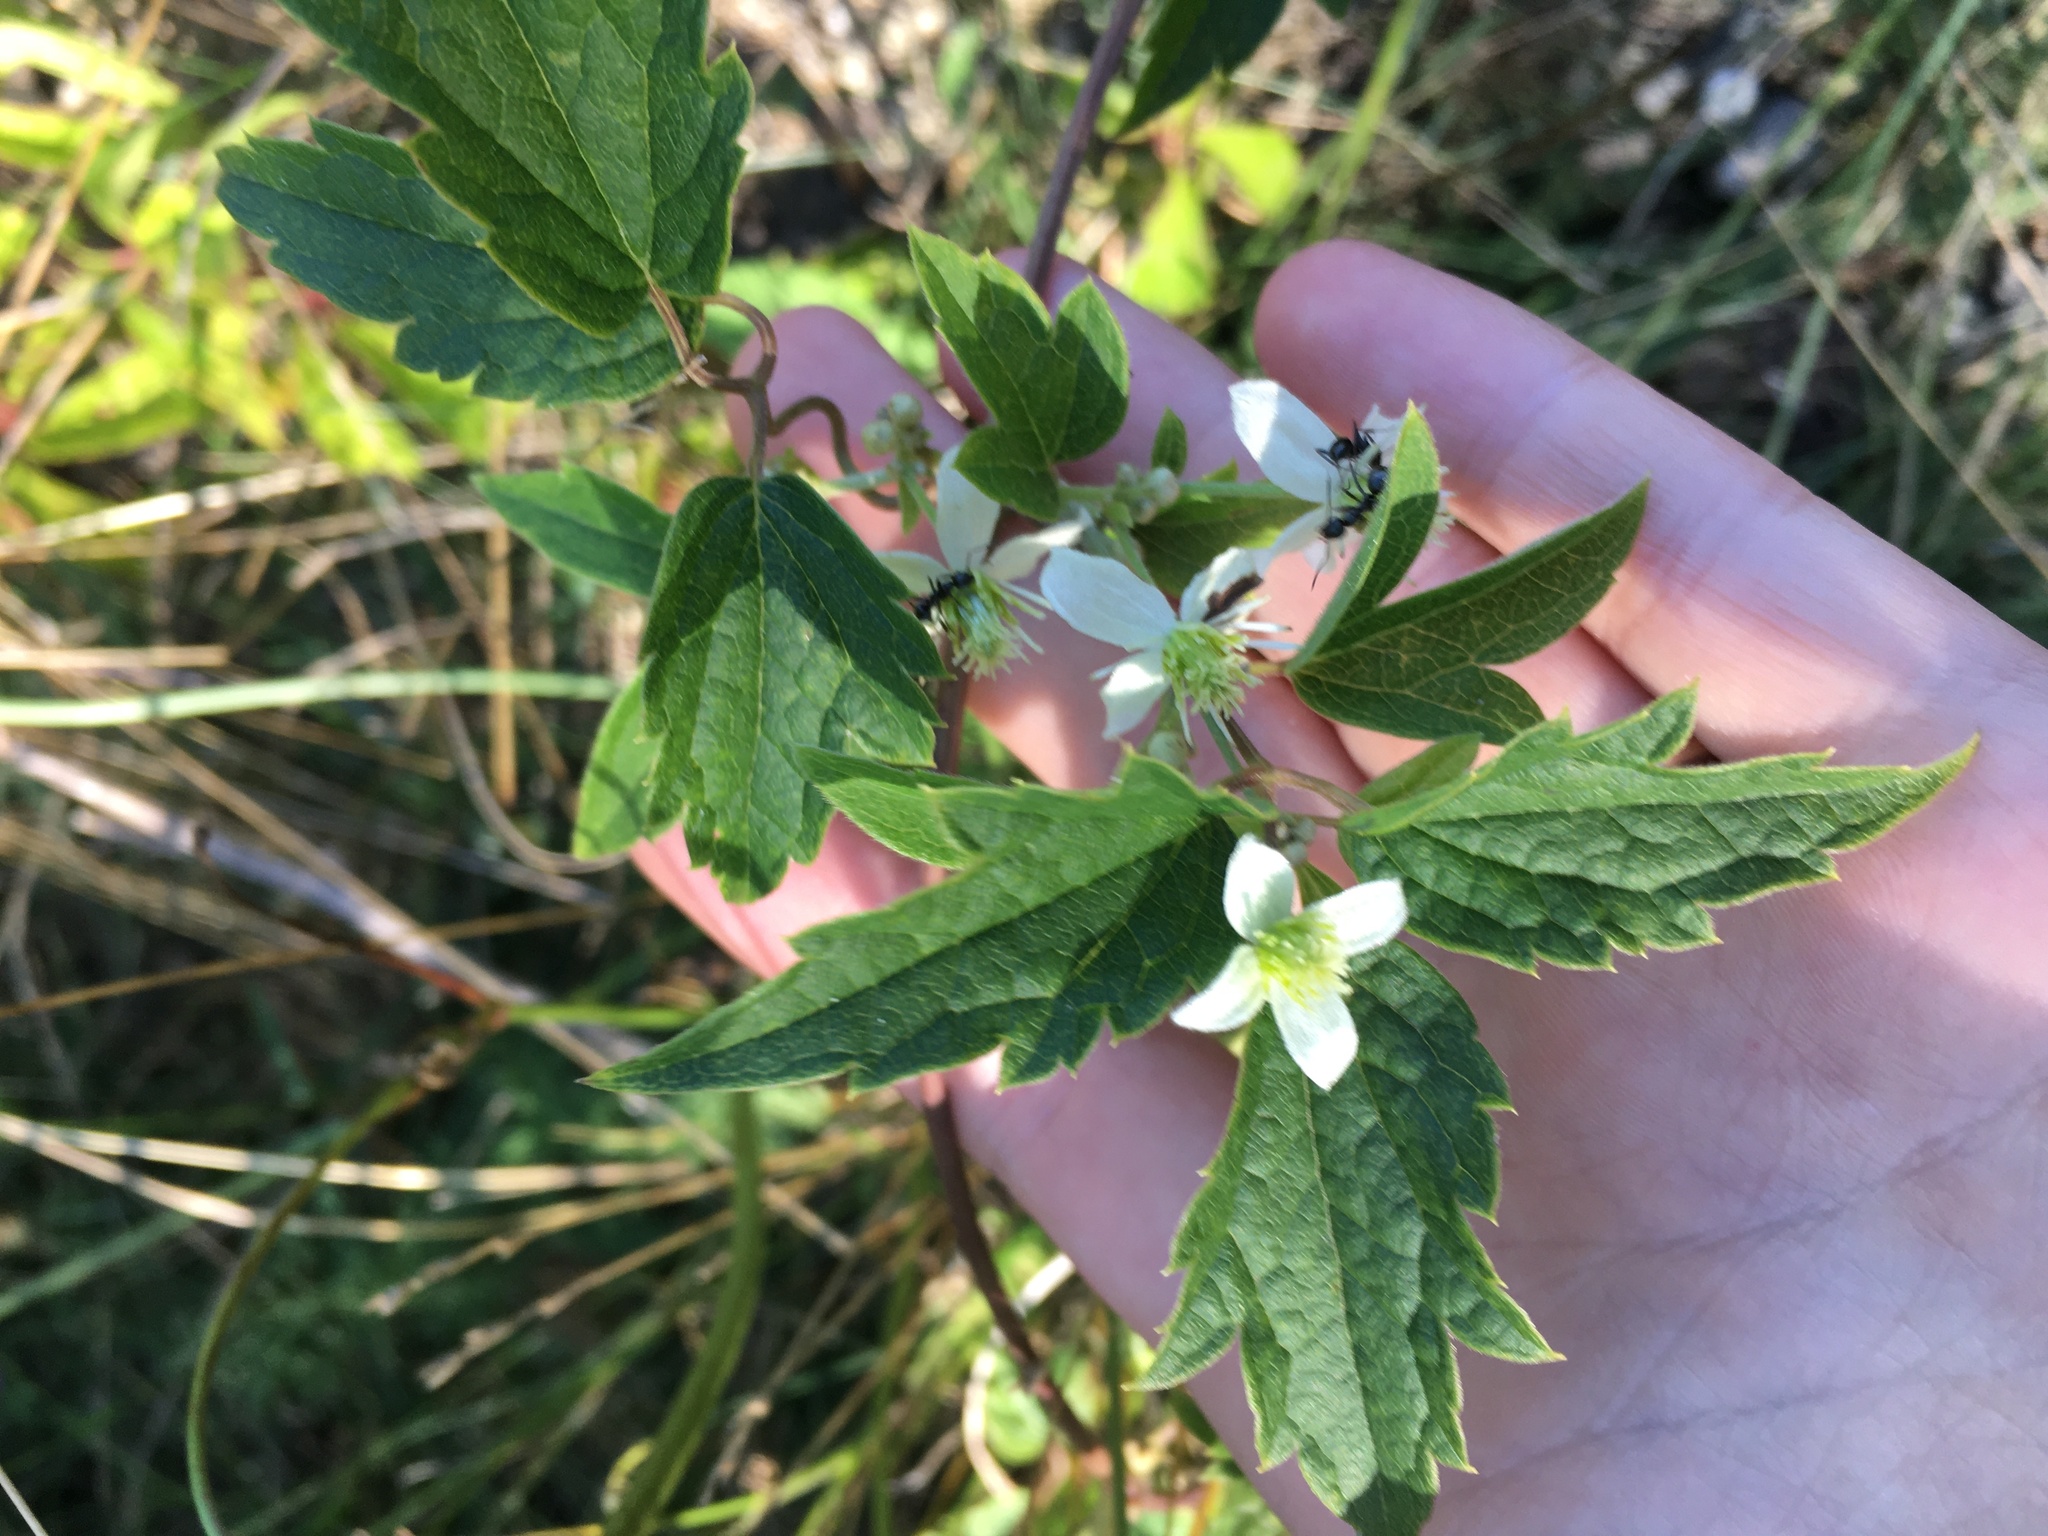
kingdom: Plantae
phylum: Tracheophyta
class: Magnoliopsida
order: Ranunculales
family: Ranunculaceae
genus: Clematis
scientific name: Clematis virginiana
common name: Virgin's-bower
